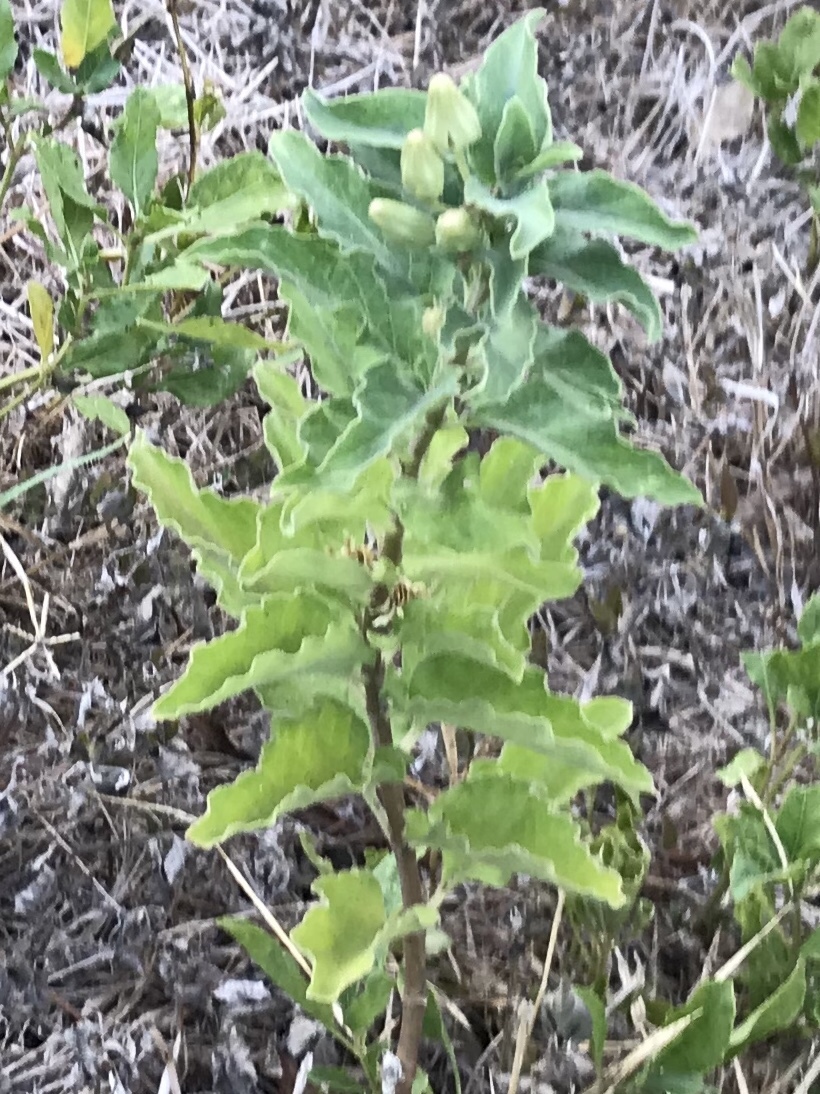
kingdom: Plantae
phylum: Tracheophyta
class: Magnoliopsida
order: Gentianales
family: Apocynaceae
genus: Asclepias
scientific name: Asclepias oenotheroides
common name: Zizotes milkweed
